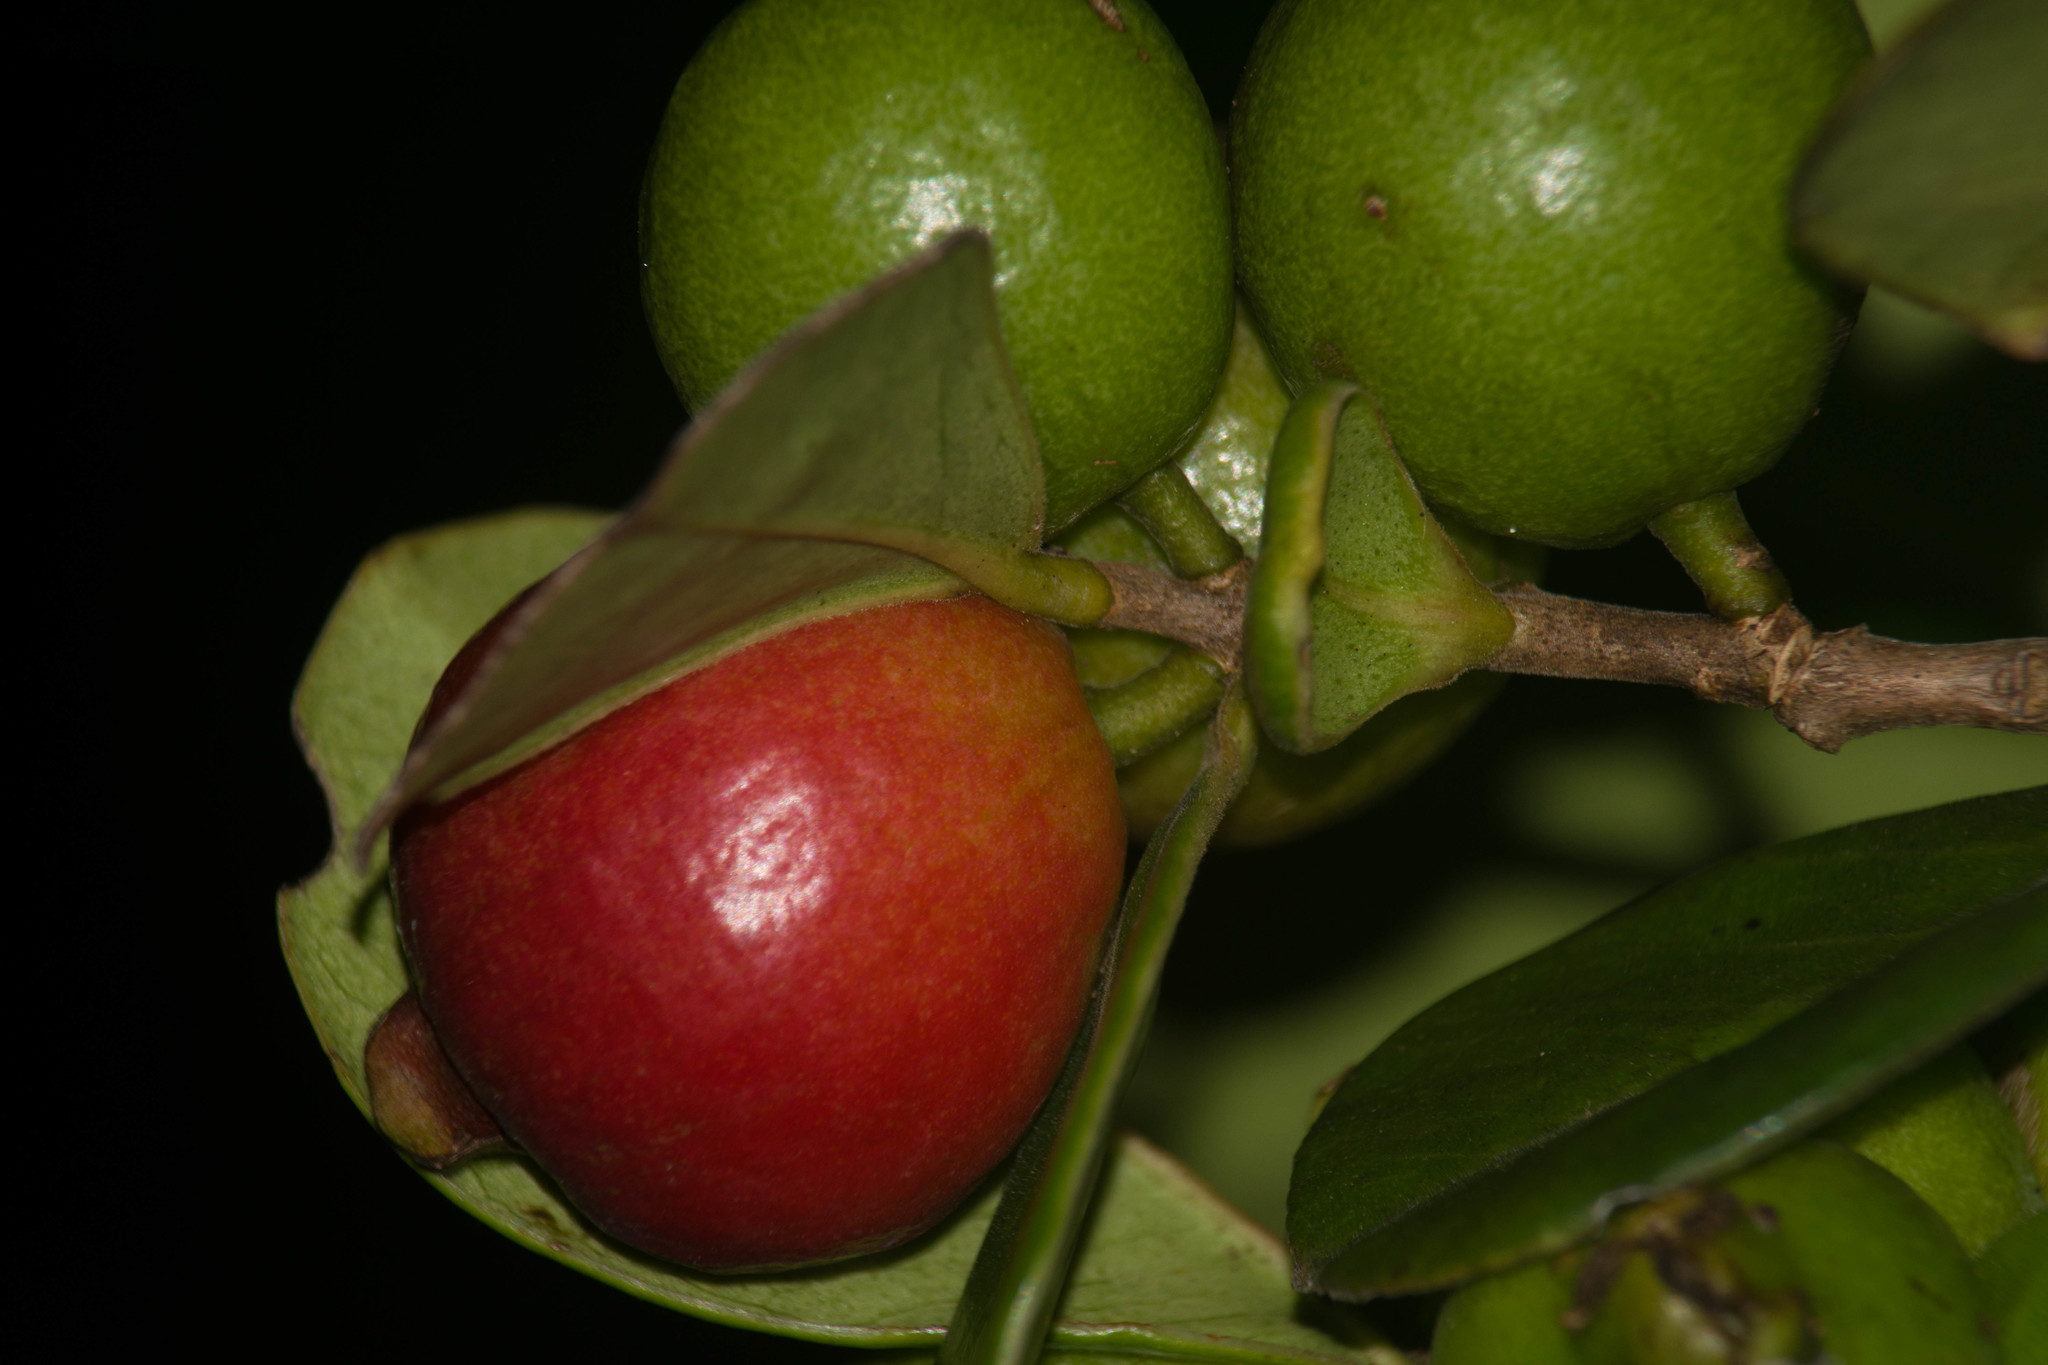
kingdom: Plantae
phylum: Tracheophyta
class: Magnoliopsida
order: Myrtales
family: Myrtaceae
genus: Psidium
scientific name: Psidium cattleianum
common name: Strawberry guava
